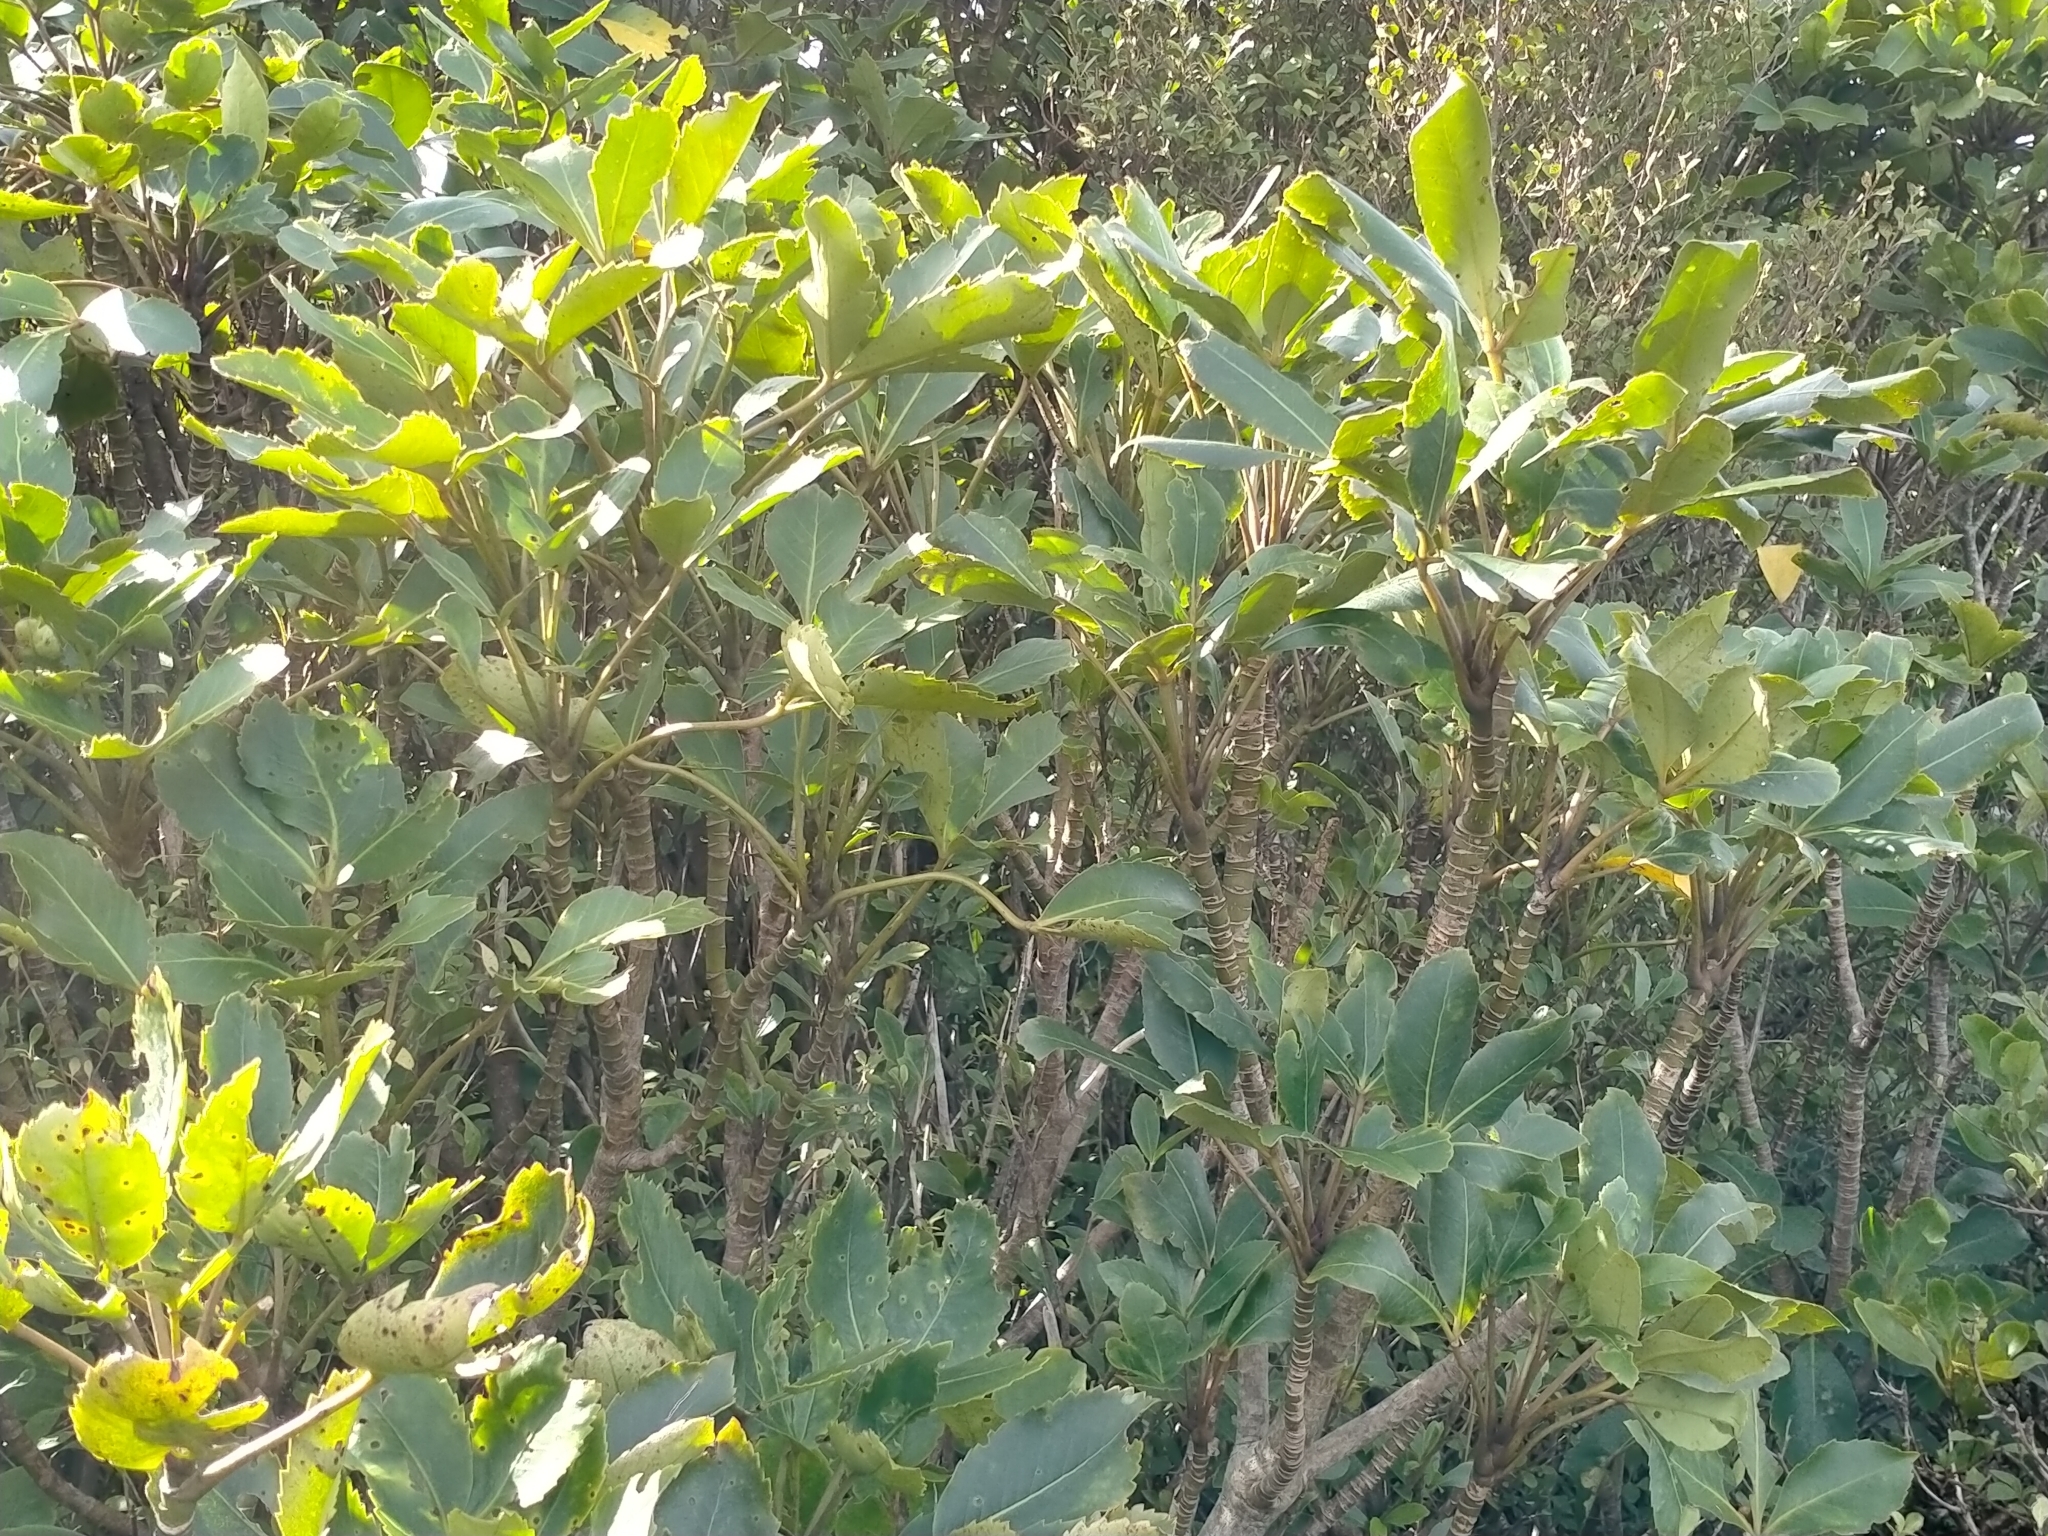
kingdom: Plantae
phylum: Tracheophyta
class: Magnoliopsida
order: Apiales
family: Araliaceae
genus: Neopanax
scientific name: Neopanax colensoi
